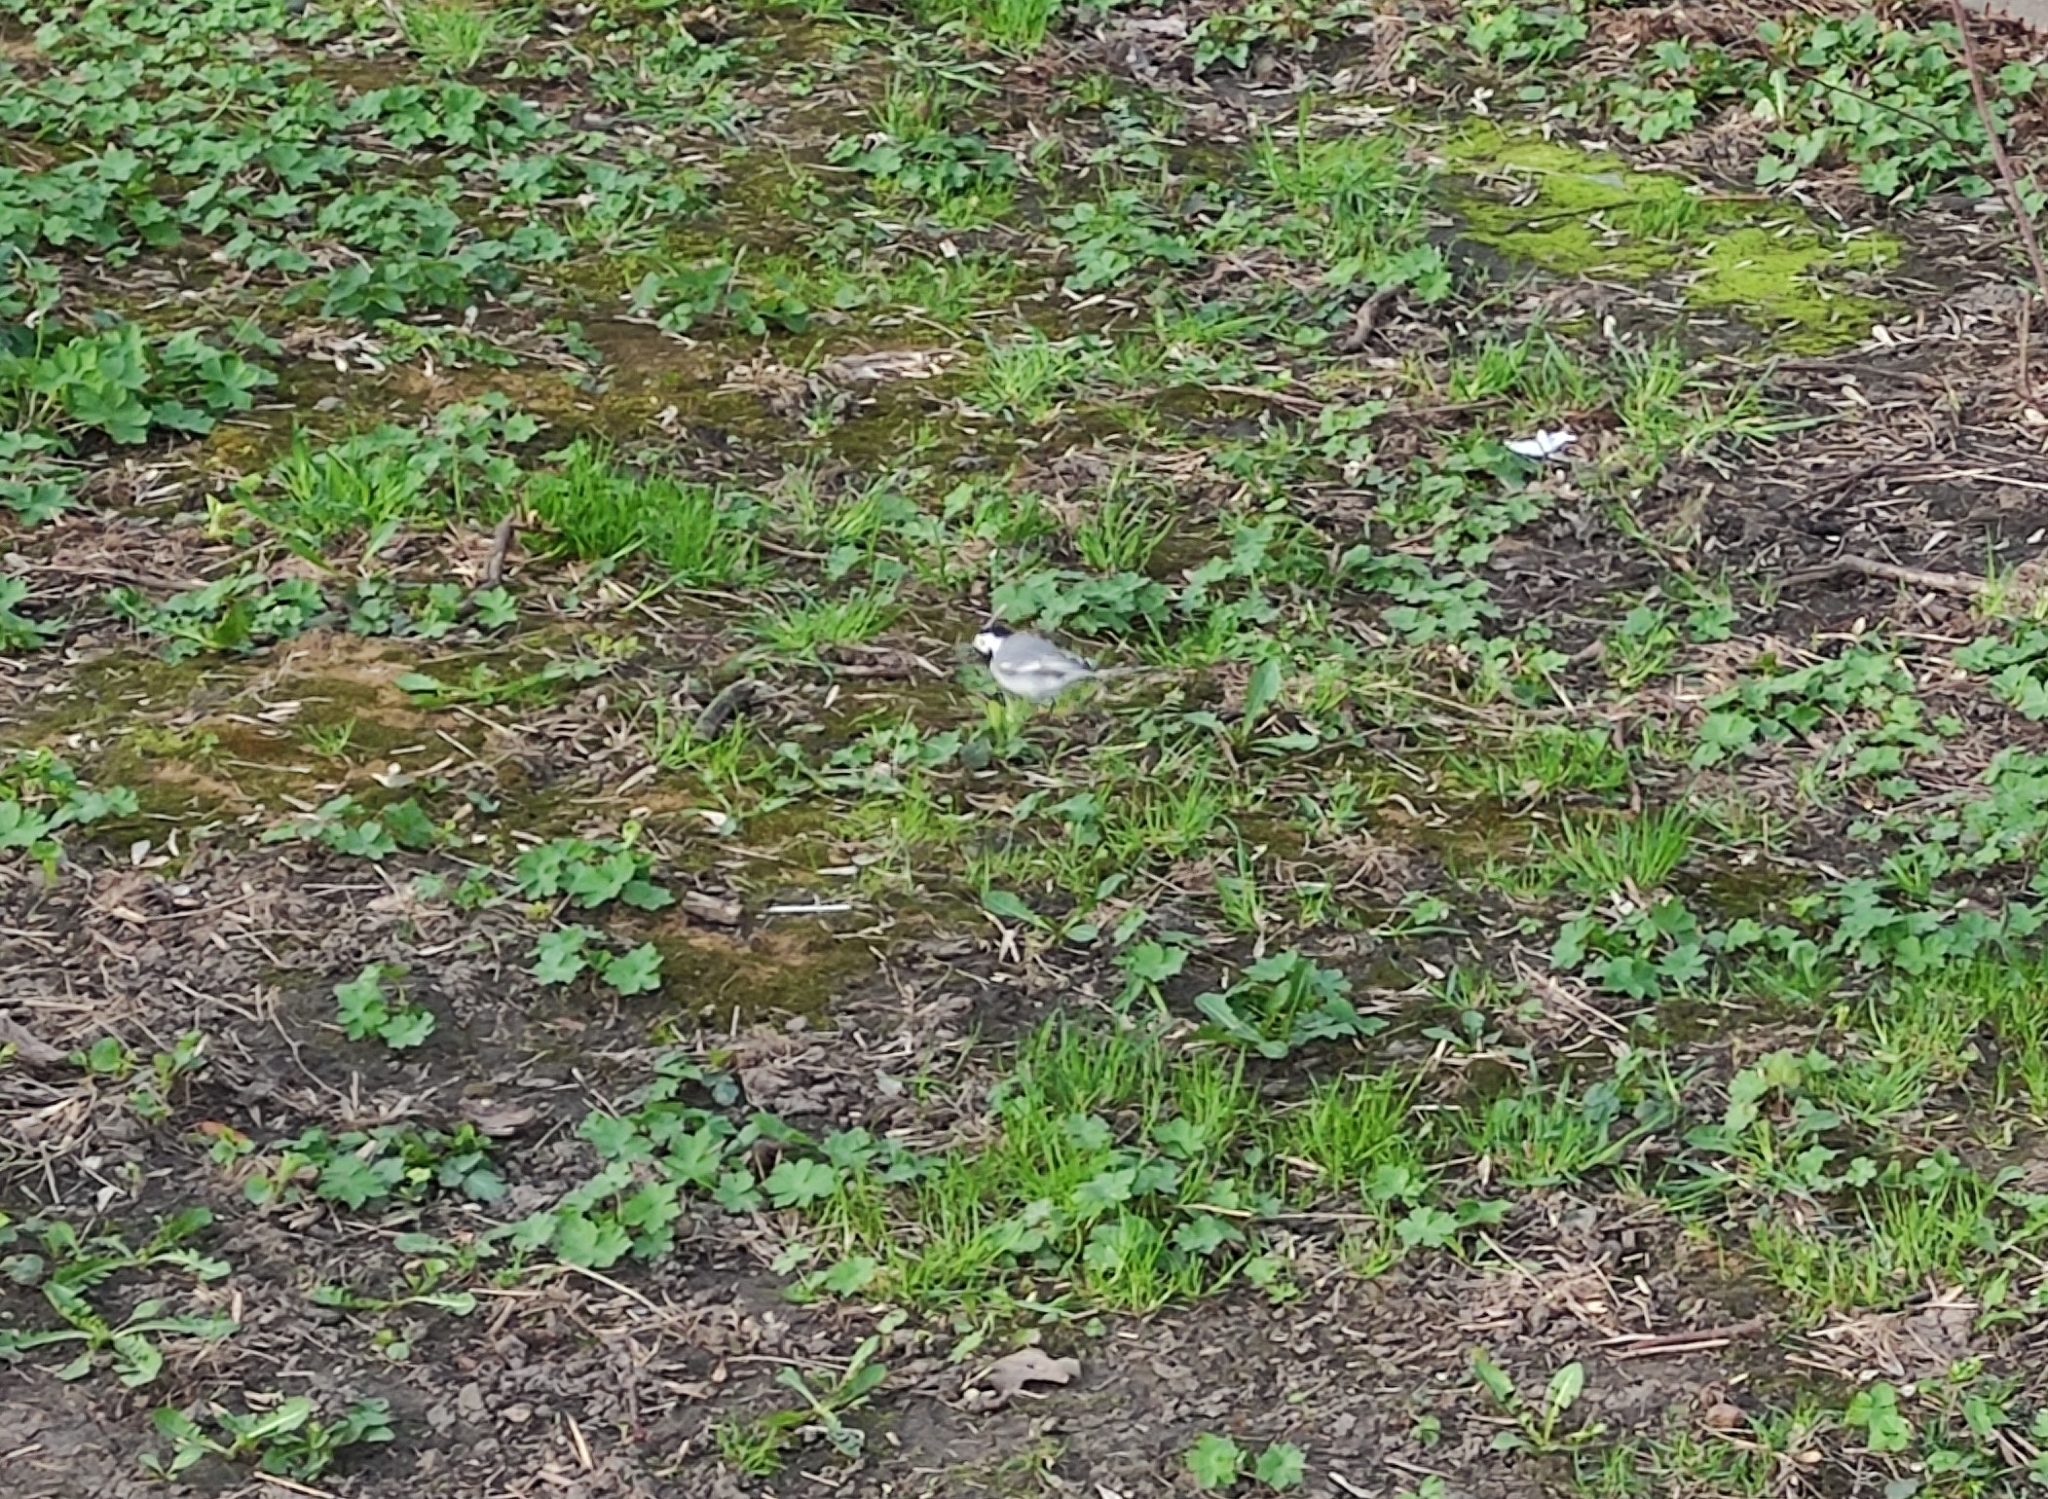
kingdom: Animalia
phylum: Chordata
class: Aves
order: Passeriformes
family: Motacillidae
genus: Motacilla
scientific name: Motacilla alba
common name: White wagtail
